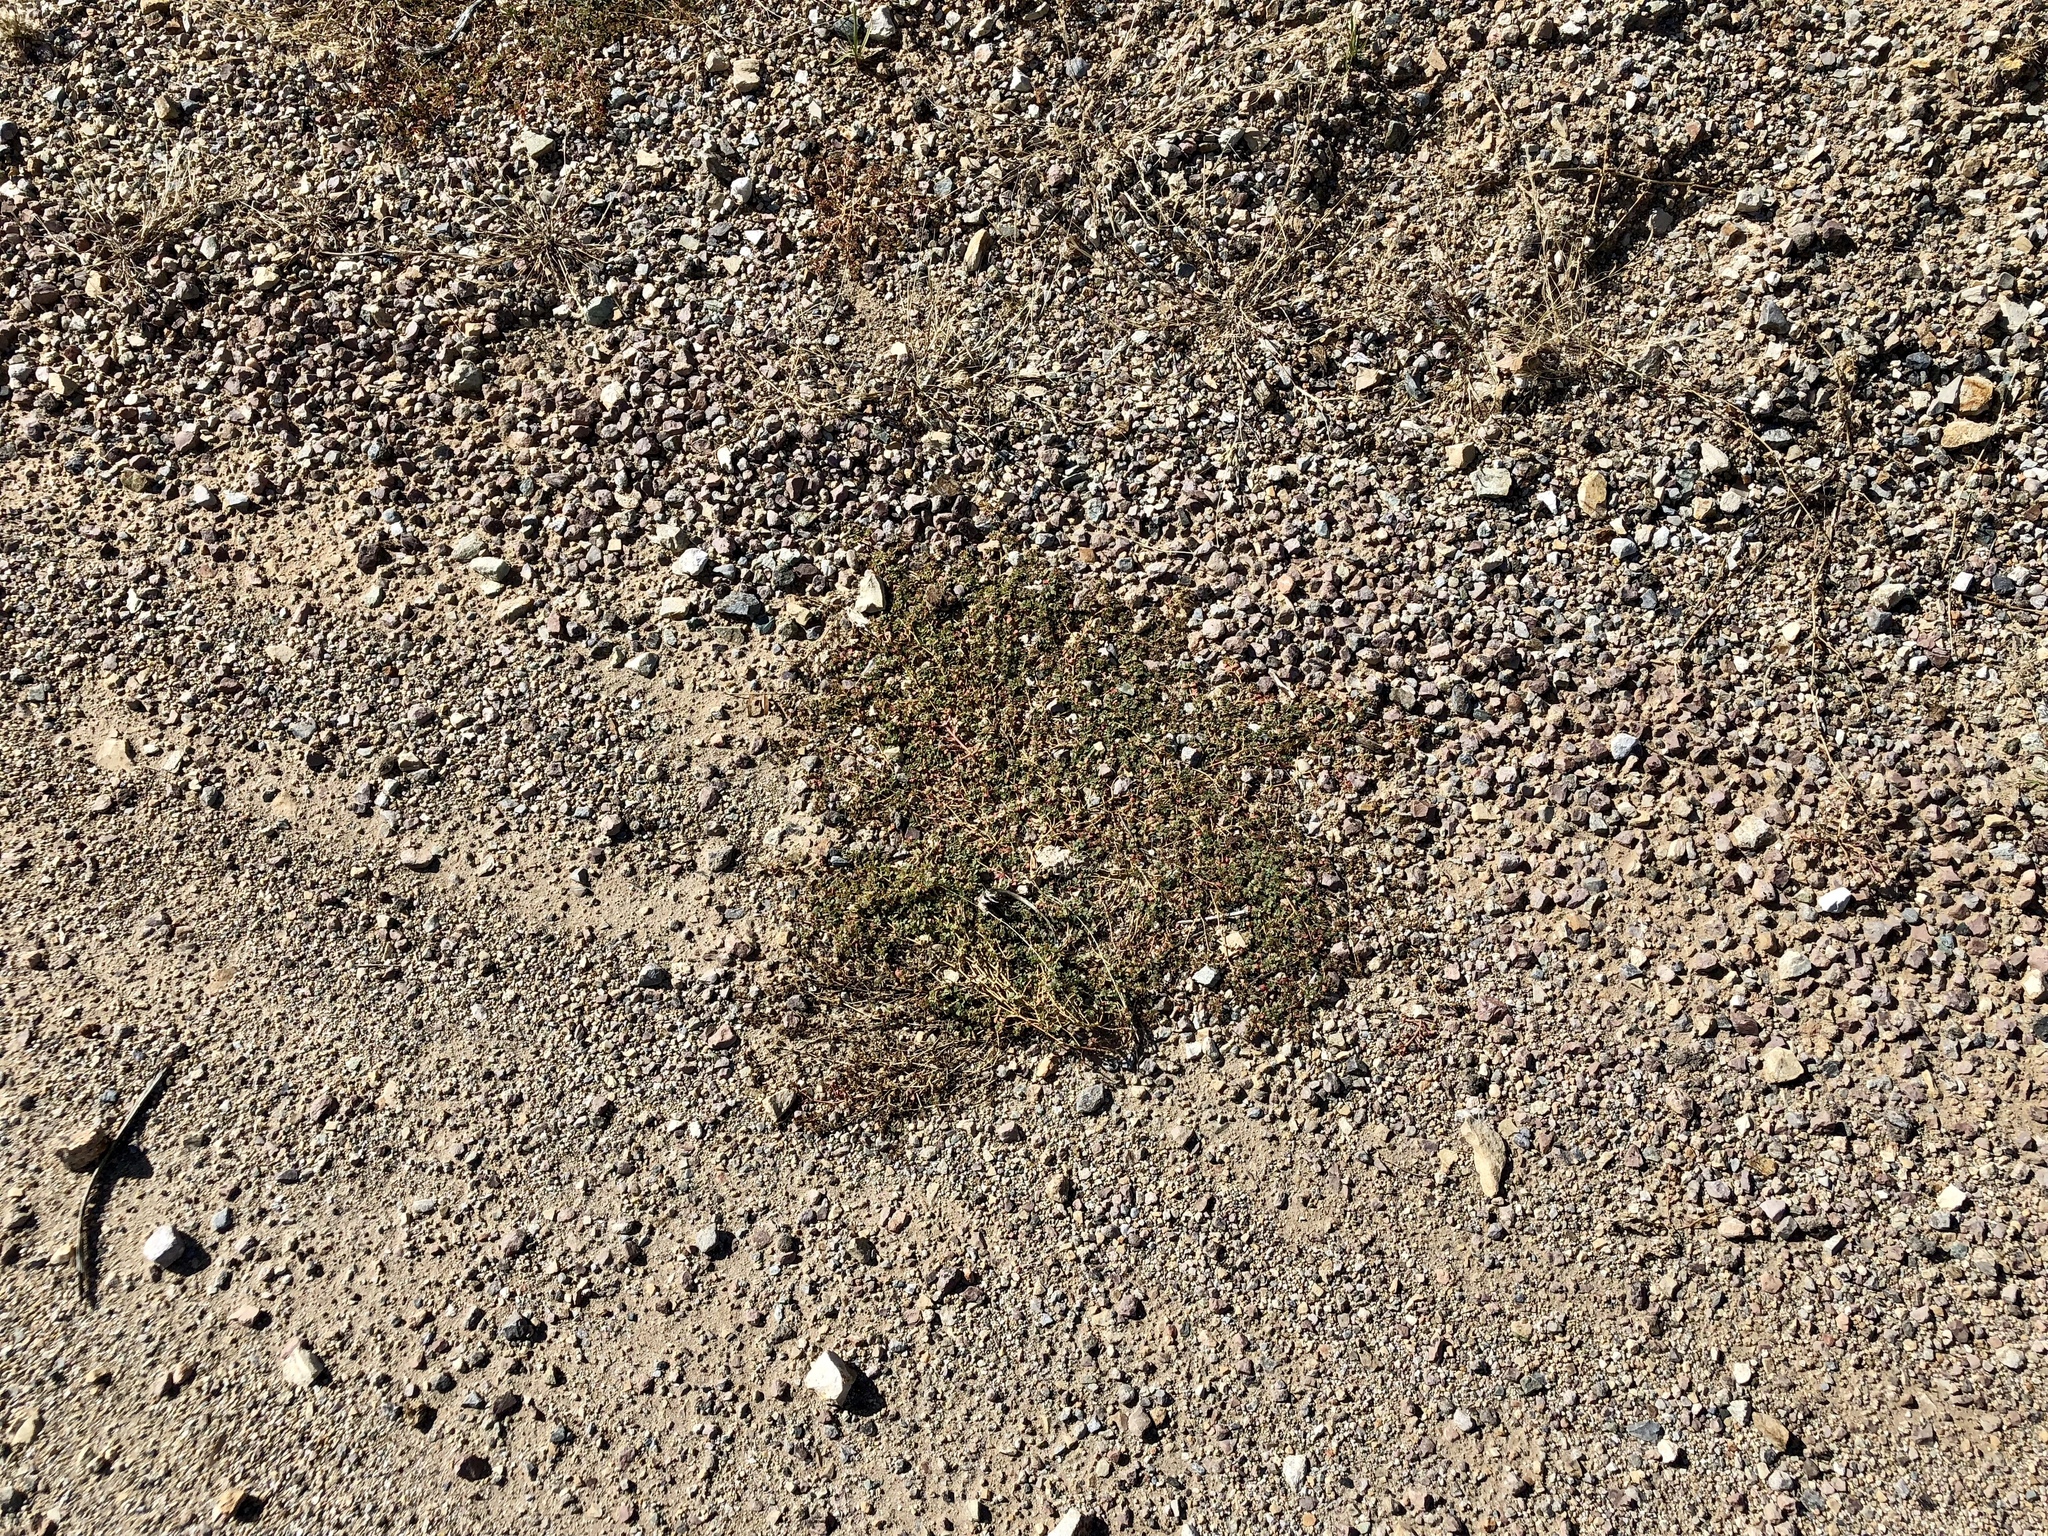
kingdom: Plantae
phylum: Tracheophyta
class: Magnoliopsida
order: Malpighiales
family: Euphorbiaceae
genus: Euphorbia
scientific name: Euphorbia albomarginata
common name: Whitemargin sandmat
